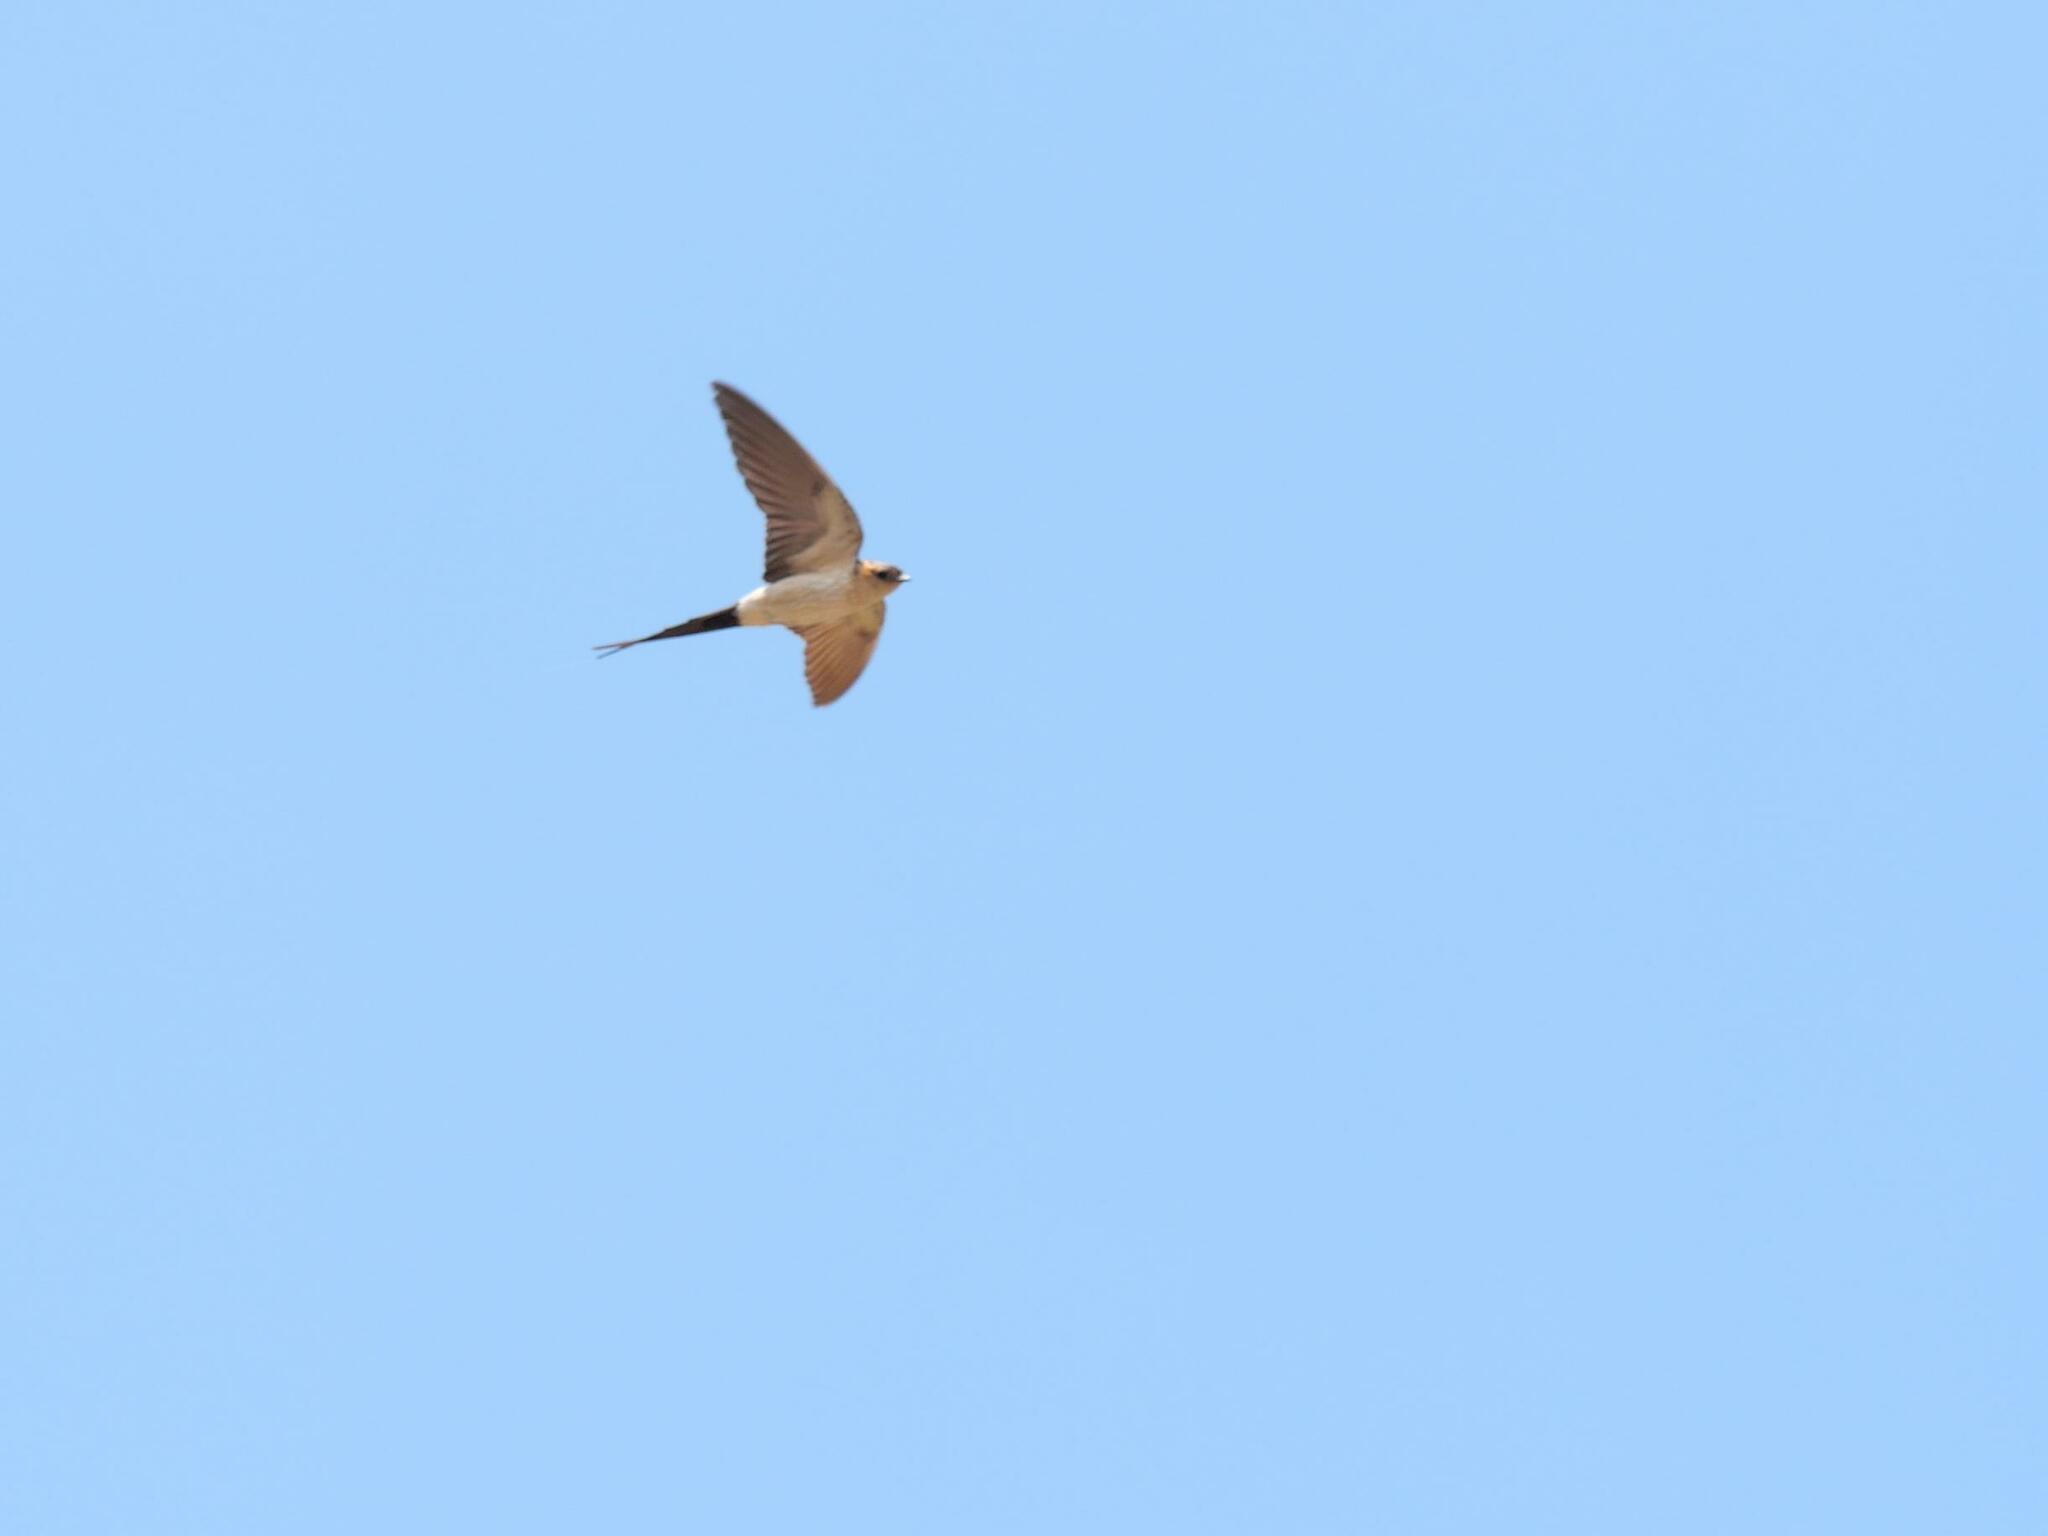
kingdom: Animalia
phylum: Chordata
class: Aves
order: Passeriformes
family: Hirundinidae
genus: Cecropis
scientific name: Cecropis daurica
